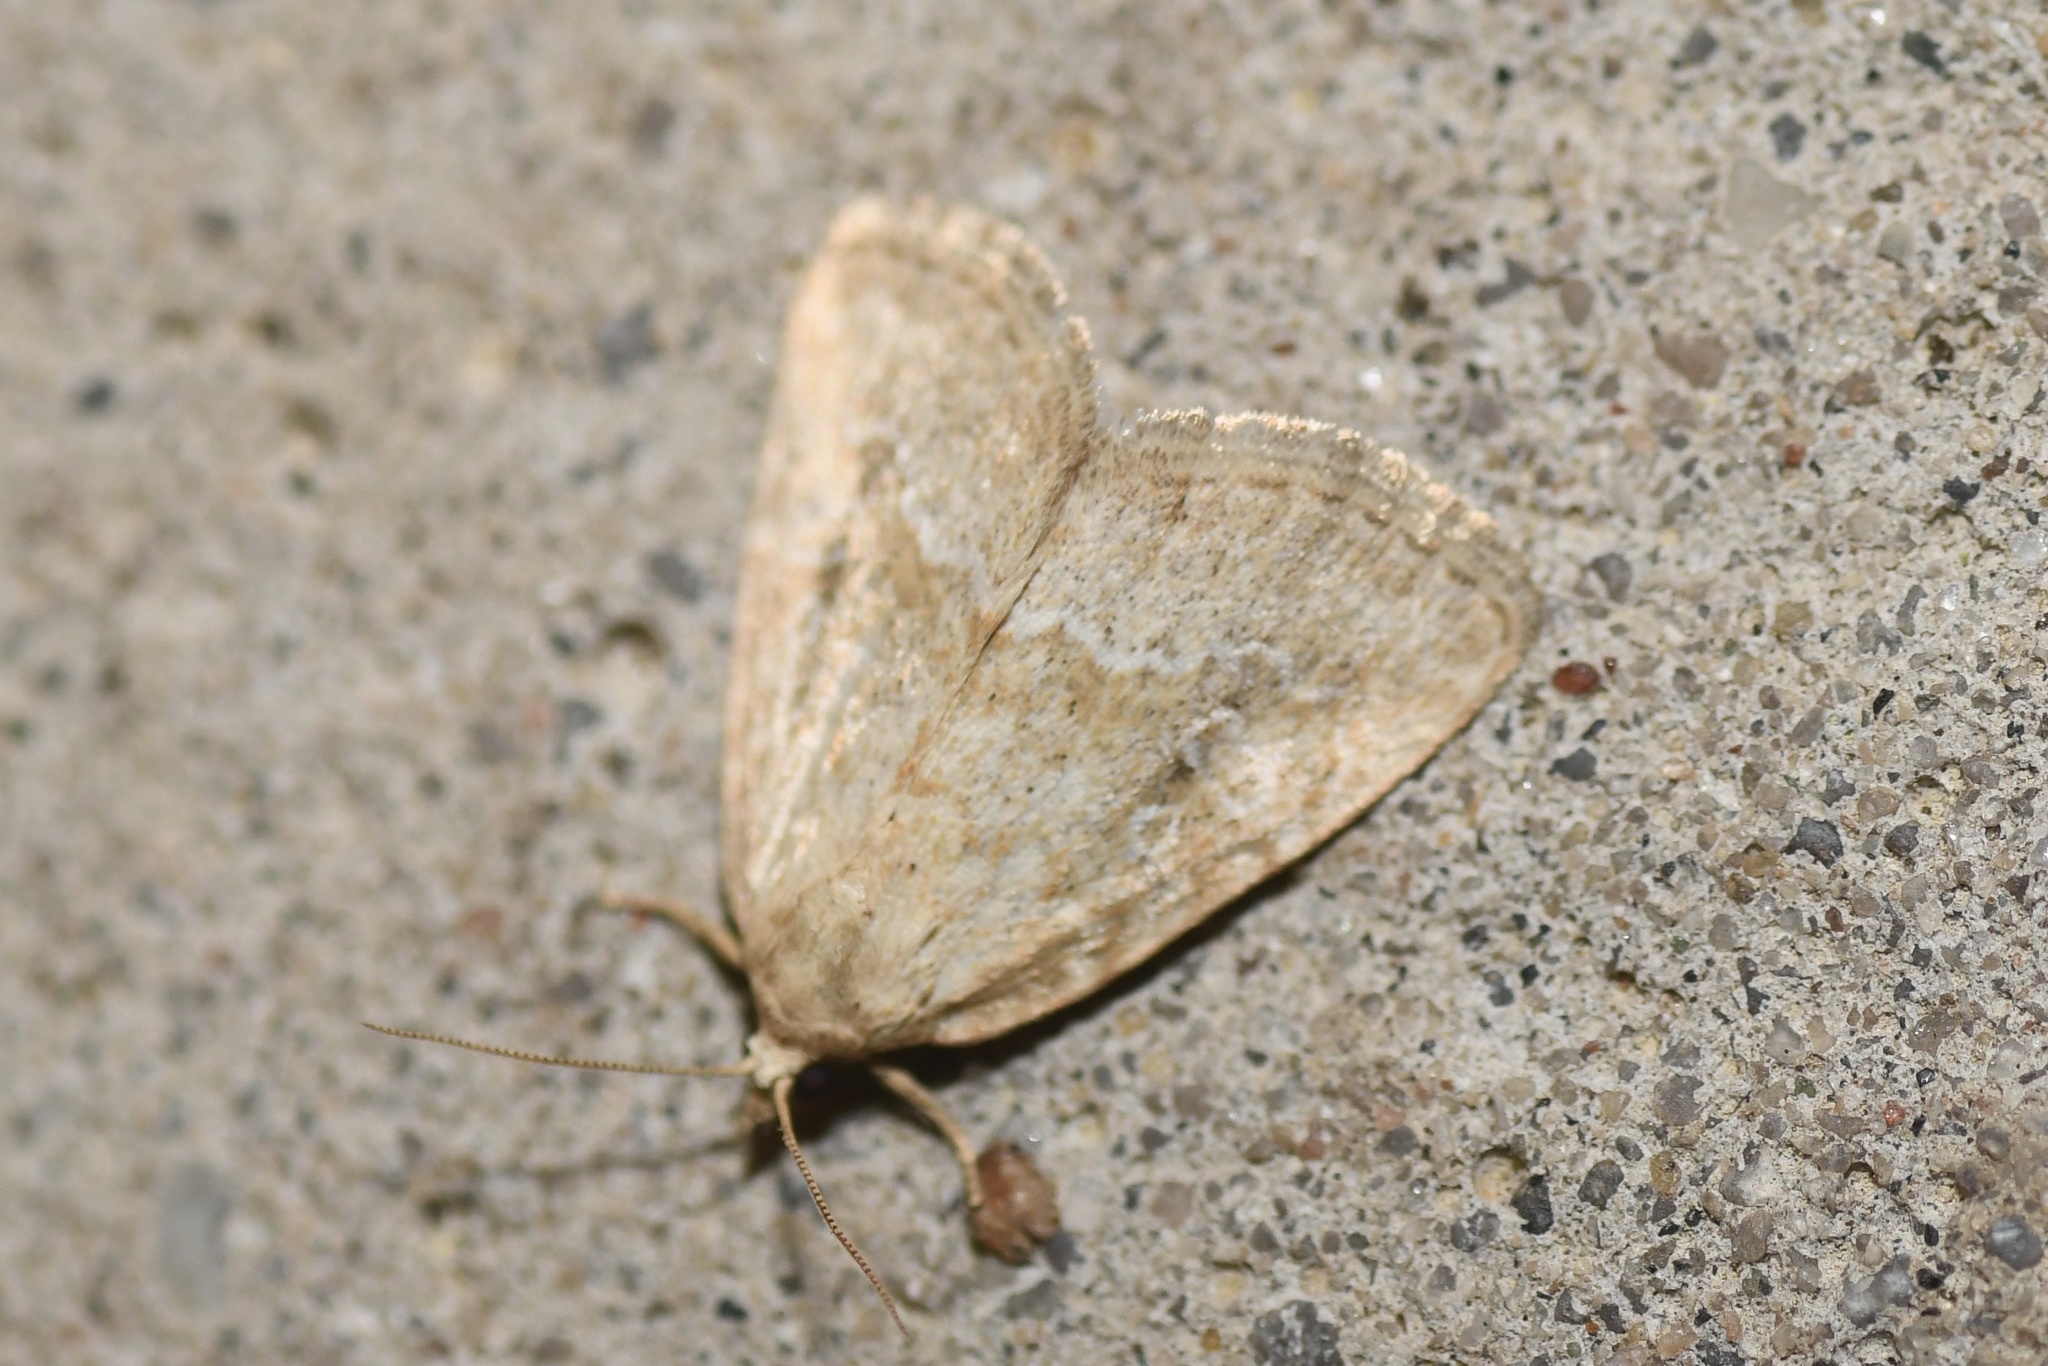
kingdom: Animalia
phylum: Arthropoda
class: Insecta
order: Lepidoptera
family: Noctuidae
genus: Protodeltote
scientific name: Protodeltote albidula
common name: Pale glyph
